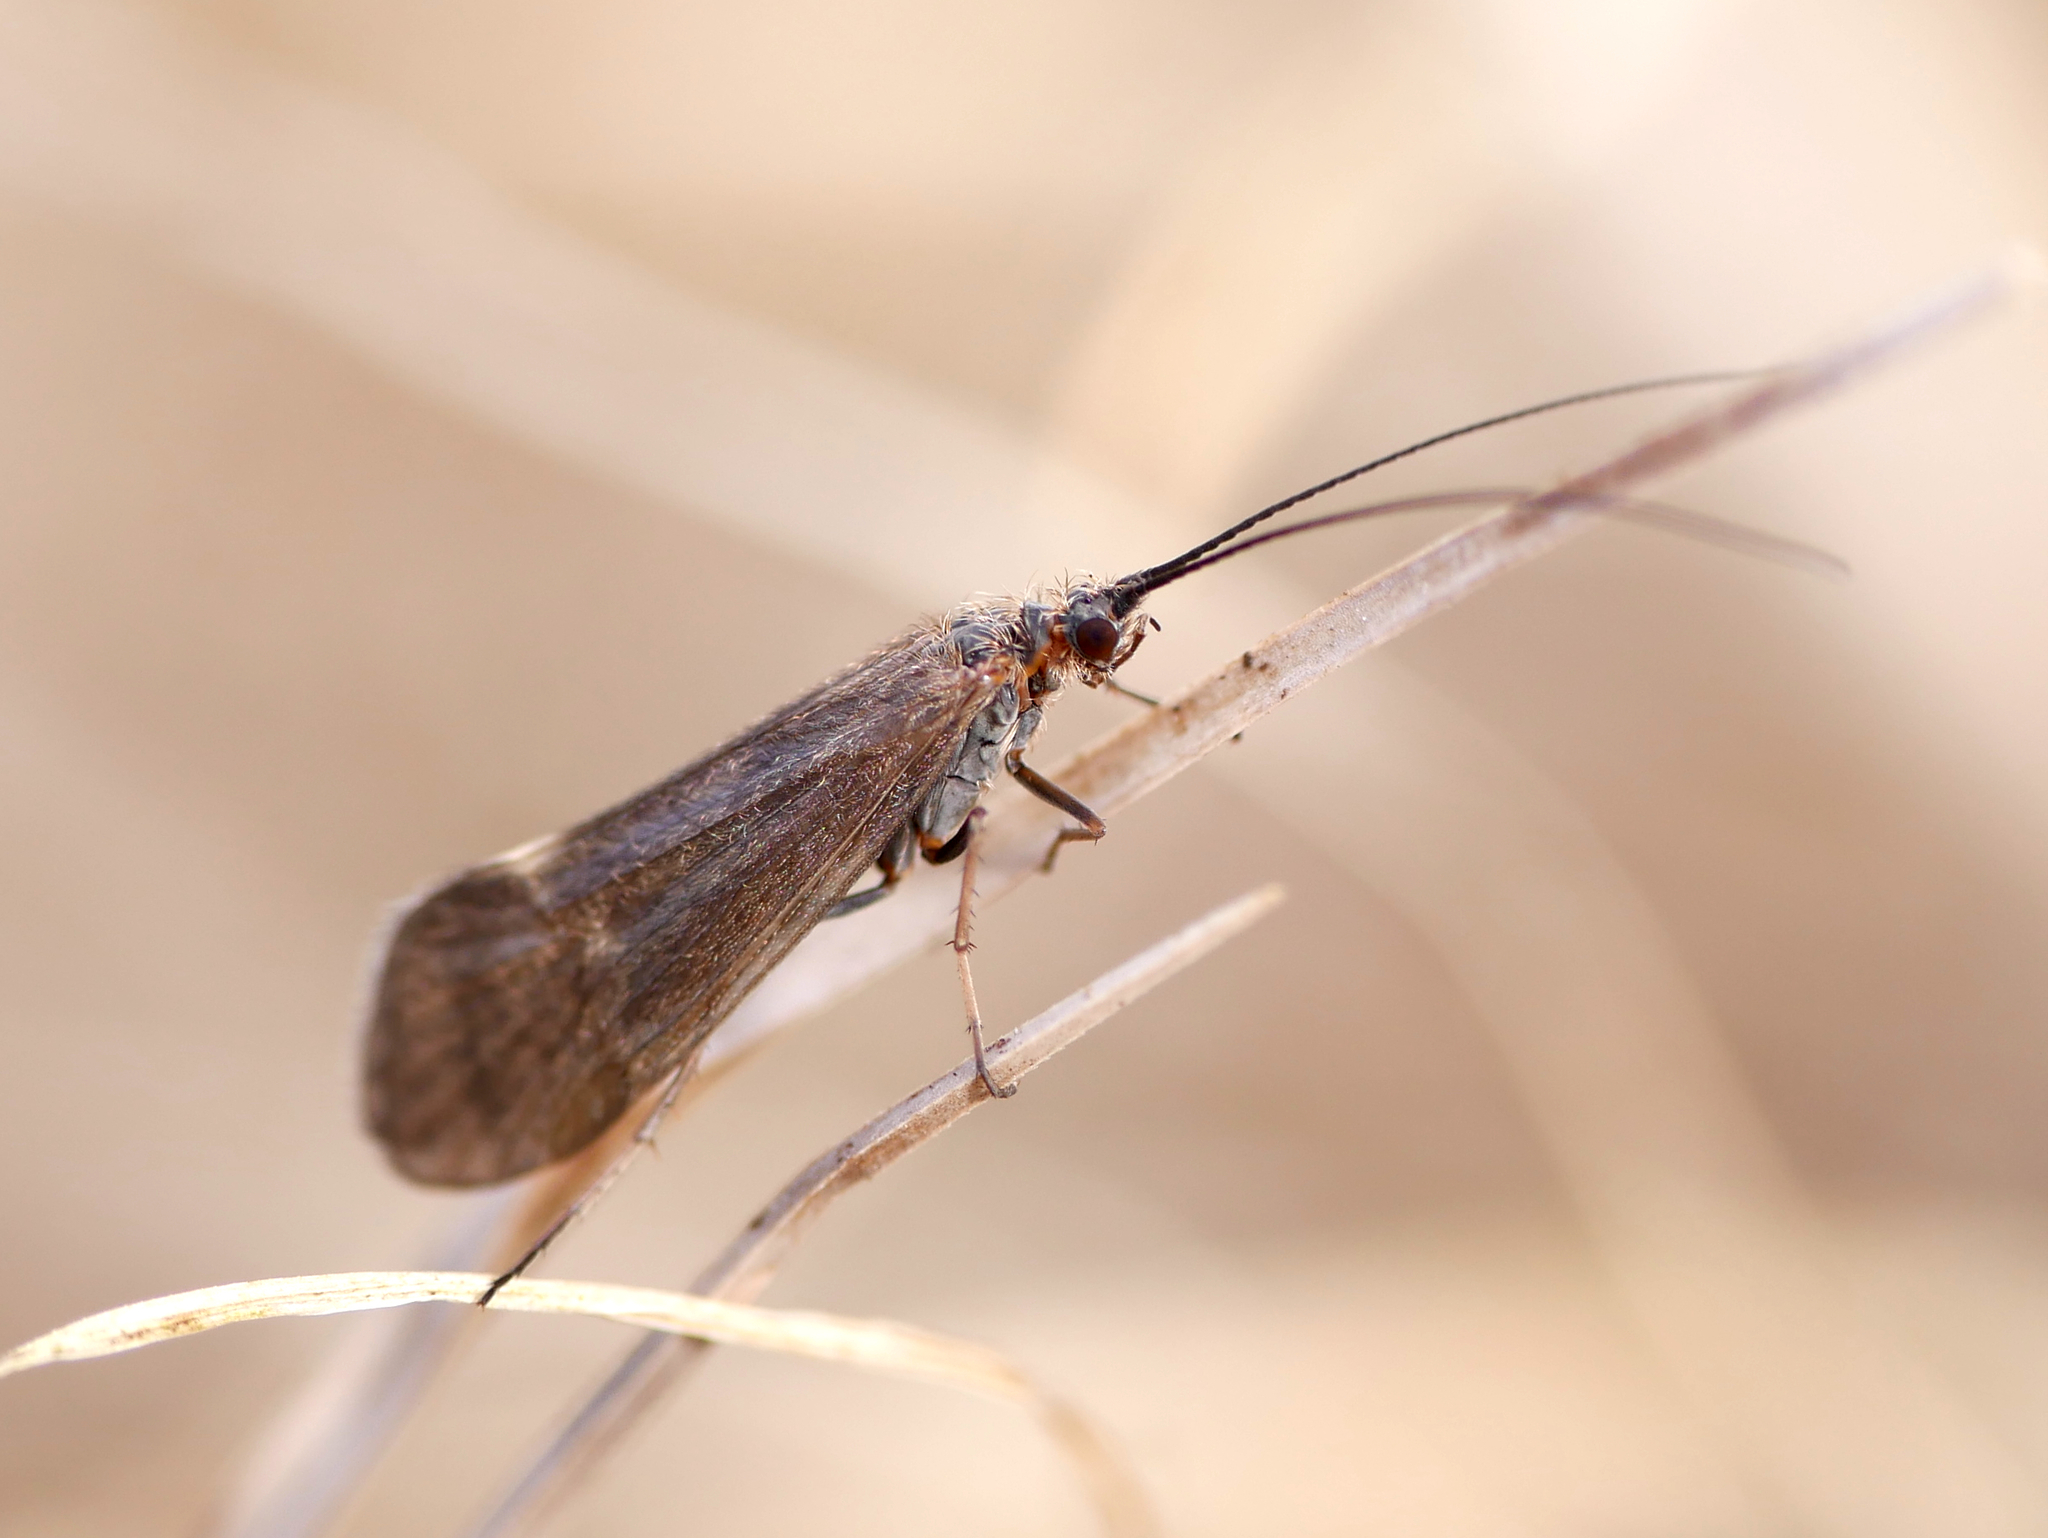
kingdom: Animalia
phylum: Arthropoda
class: Insecta
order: Trichoptera
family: Apataniidae
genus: Apatania
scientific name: Apatania muliebris
